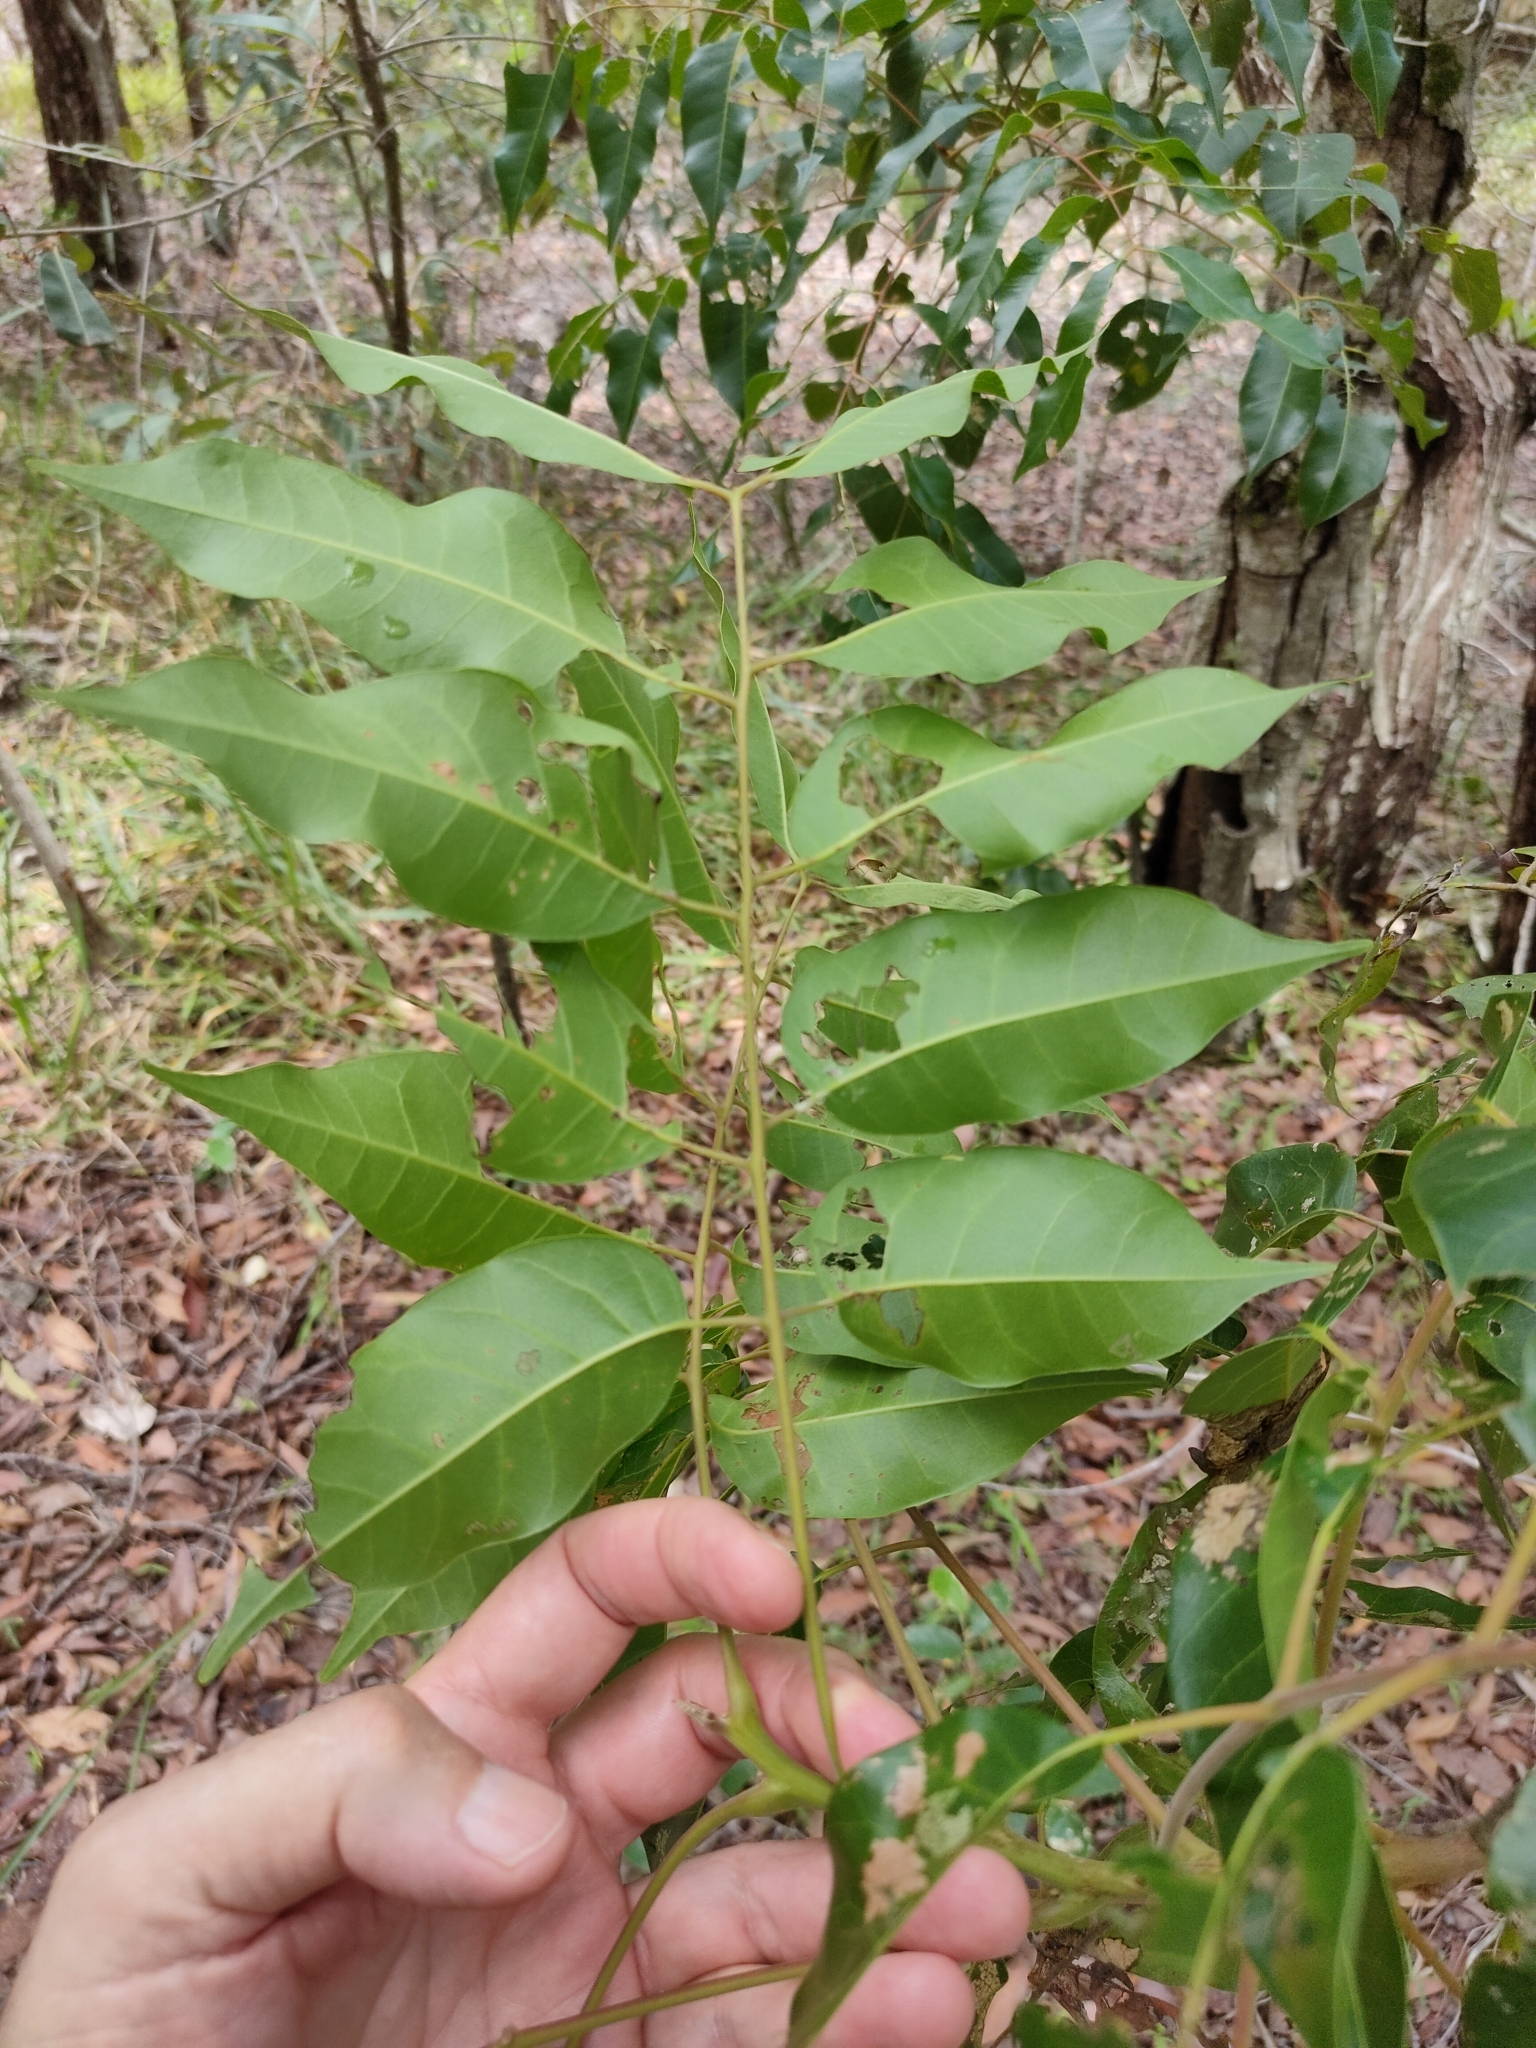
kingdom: Plantae
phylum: Tracheophyta
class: Magnoliopsida
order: Sapindales
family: Anacardiaceae
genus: Euroschinus
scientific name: Euroschinus falcatus
